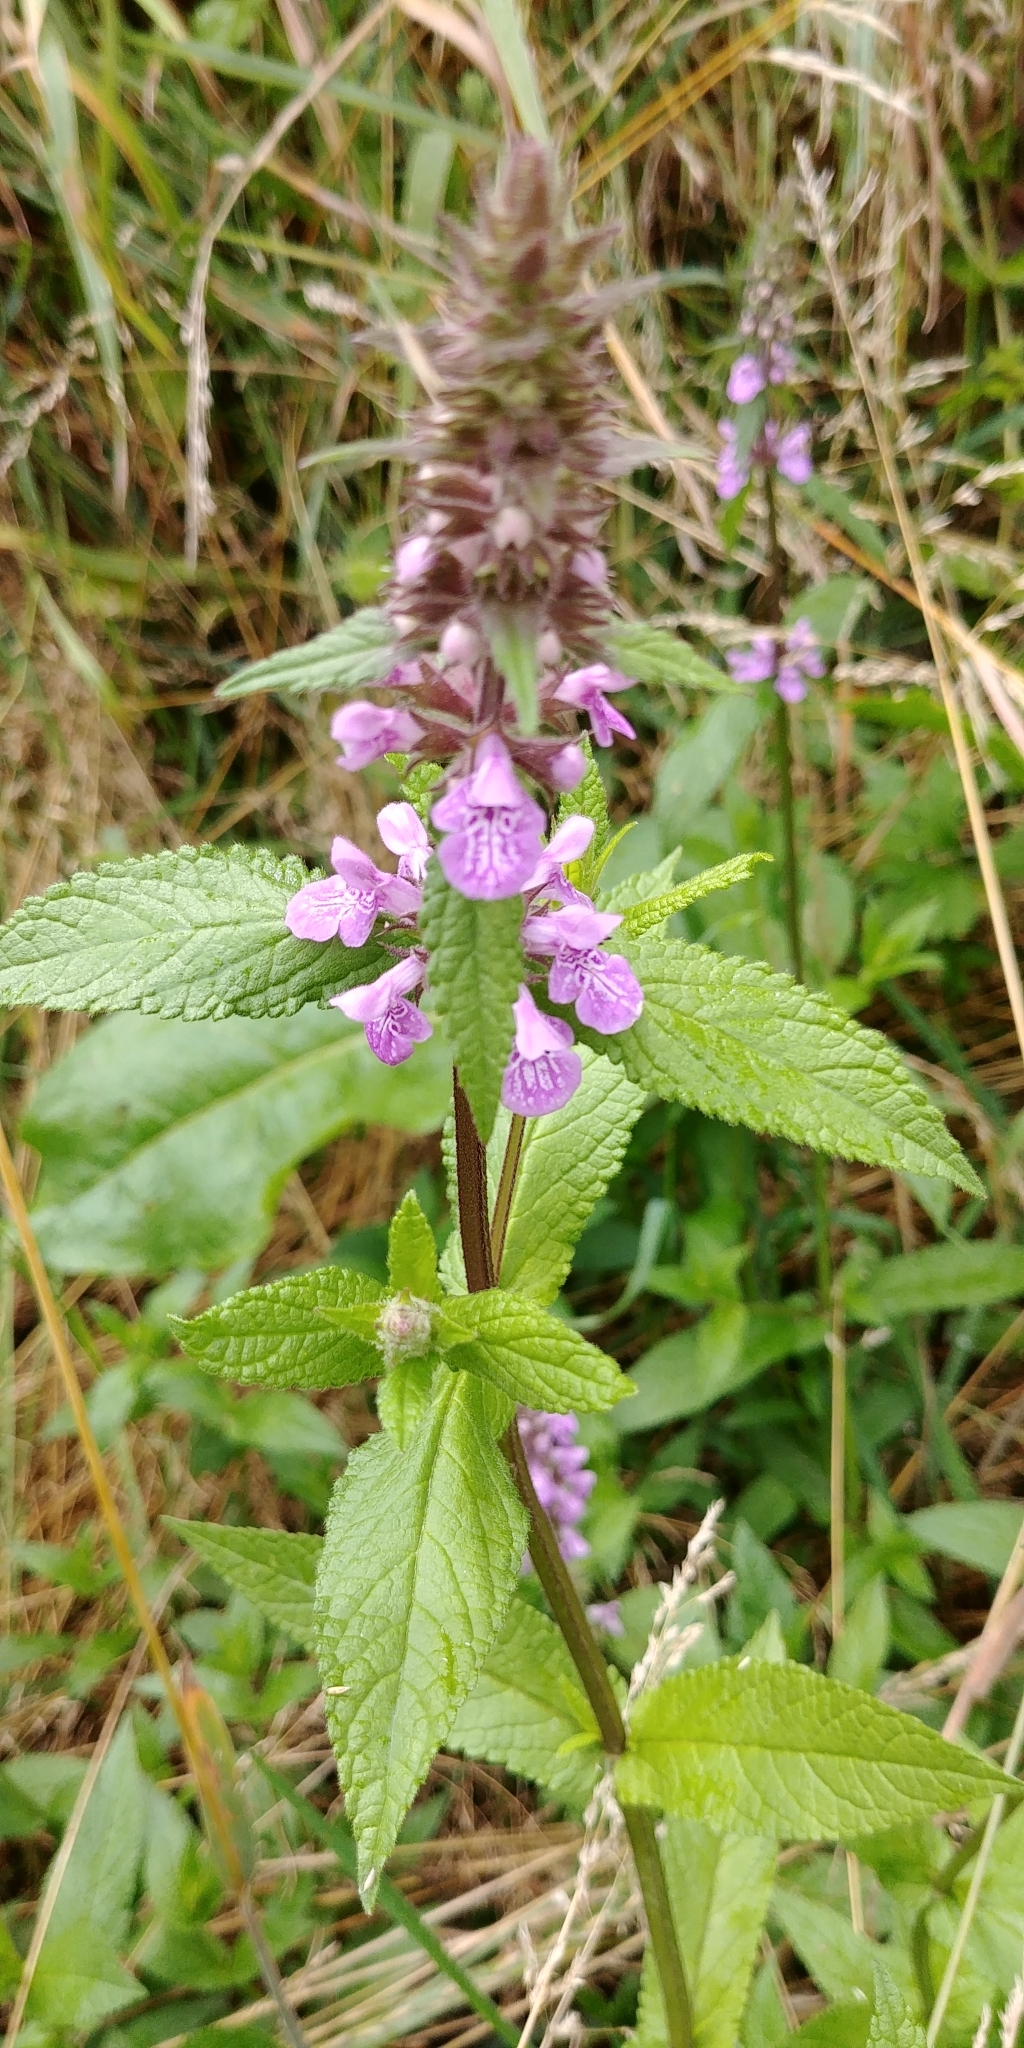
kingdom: Plantae
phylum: Tracheophyta
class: Magnoliopsida
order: Lamiales
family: Lamiaceae
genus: Stachys
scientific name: Stachys palustris
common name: Marsh woundwort
